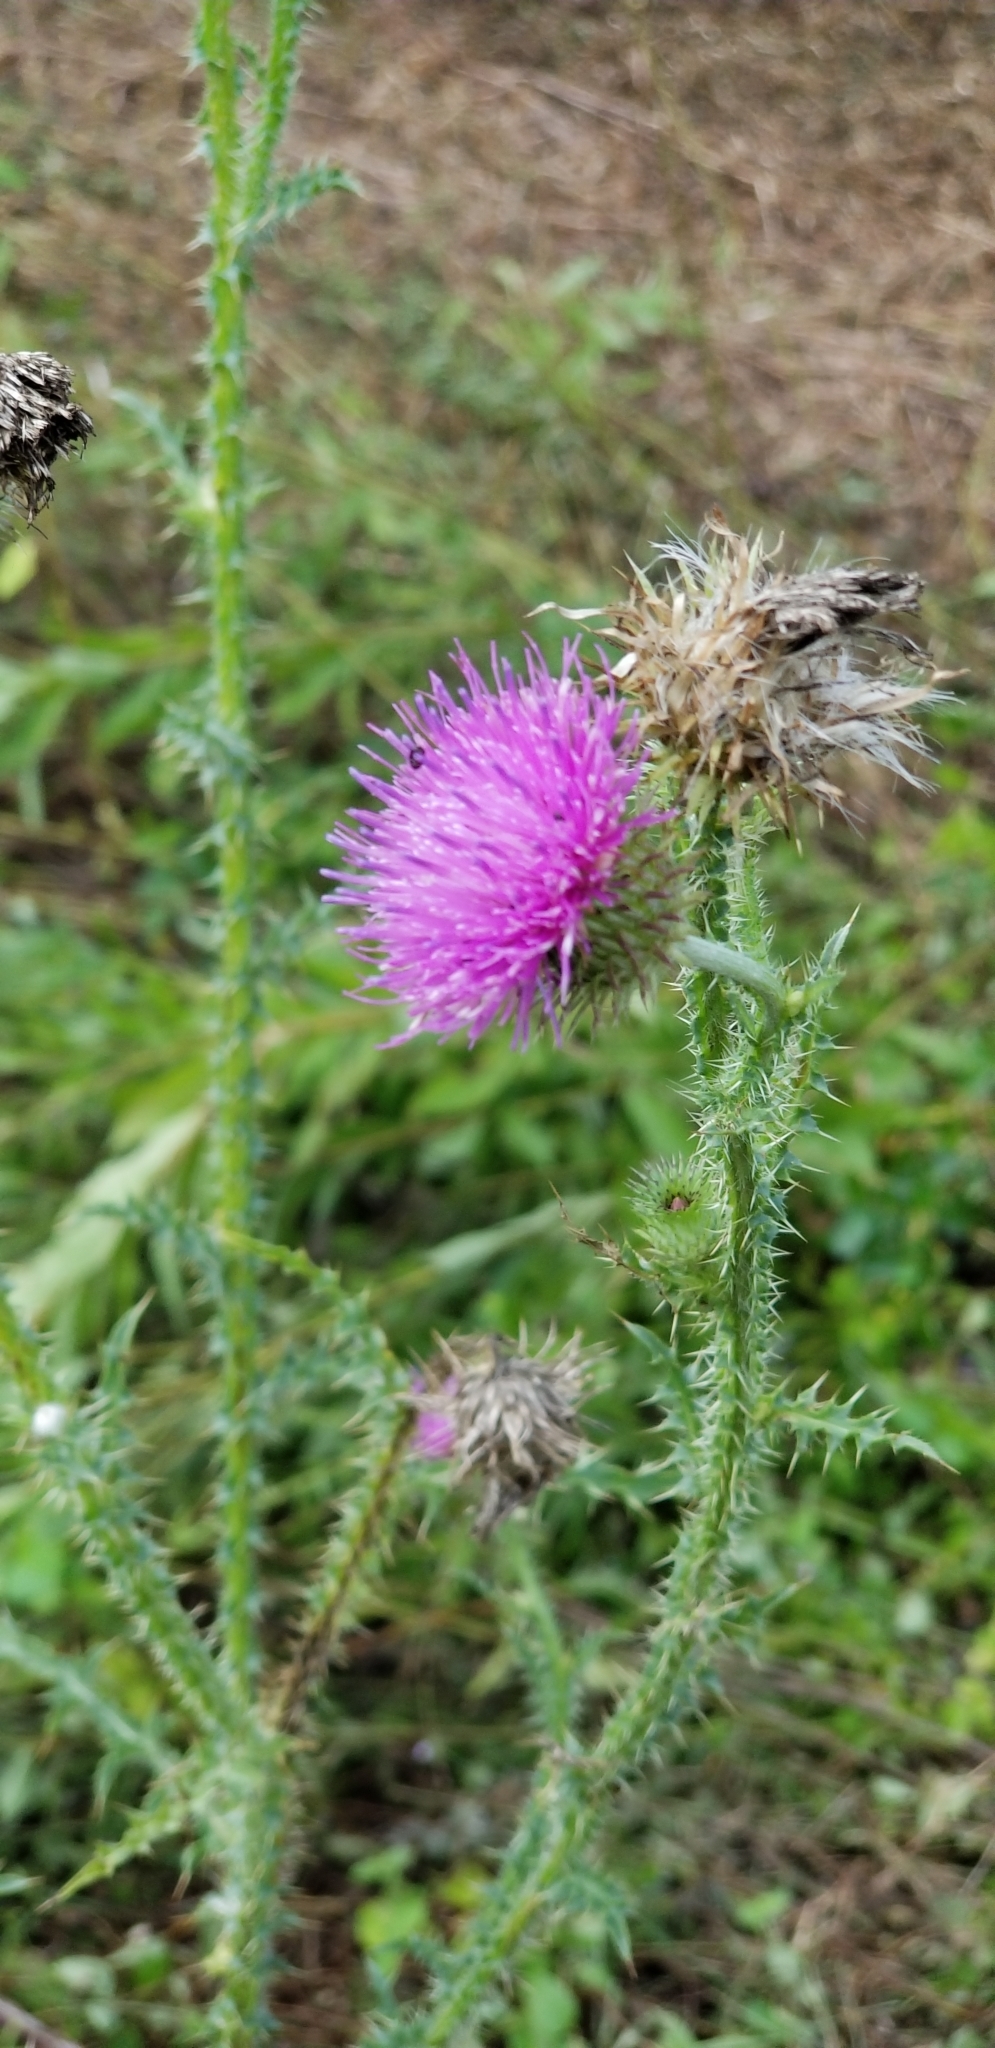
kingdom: Plantae
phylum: Tracheophyta
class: Magnoliopsida
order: Asterales
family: Asteraceae
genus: Carduus
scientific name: Carduus acanthoides
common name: Plumeless thistle
